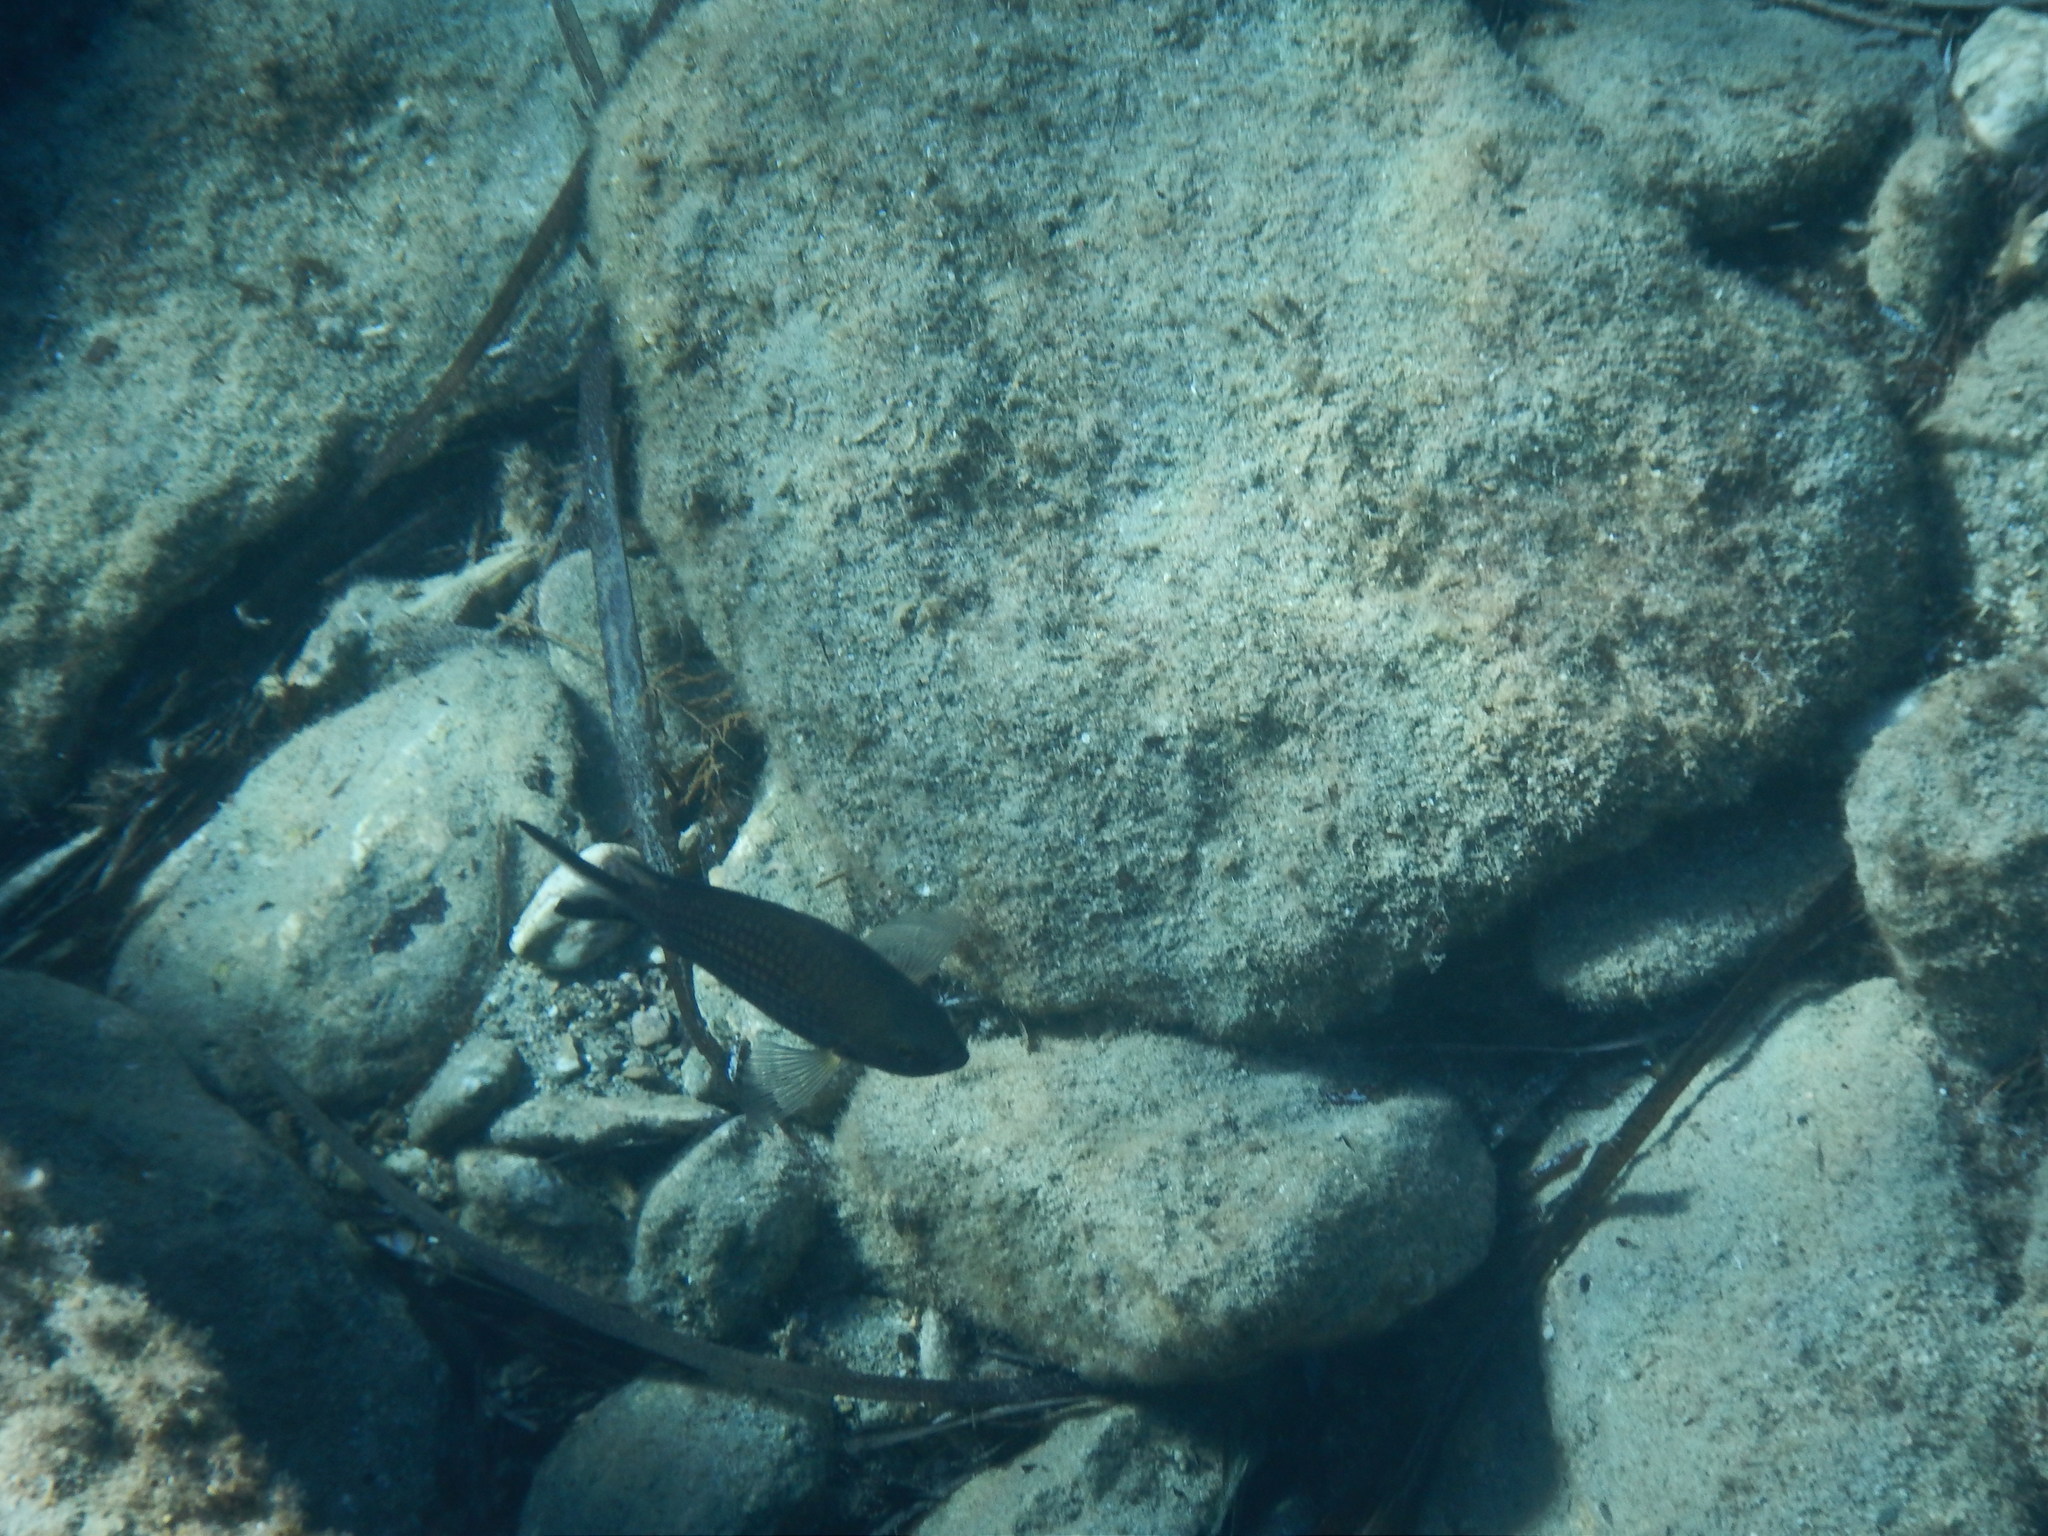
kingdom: Animalia
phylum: Chordata
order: Perciformes
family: Pomacentridae
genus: Chromis
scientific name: Chromis chromis
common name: Damselfish
